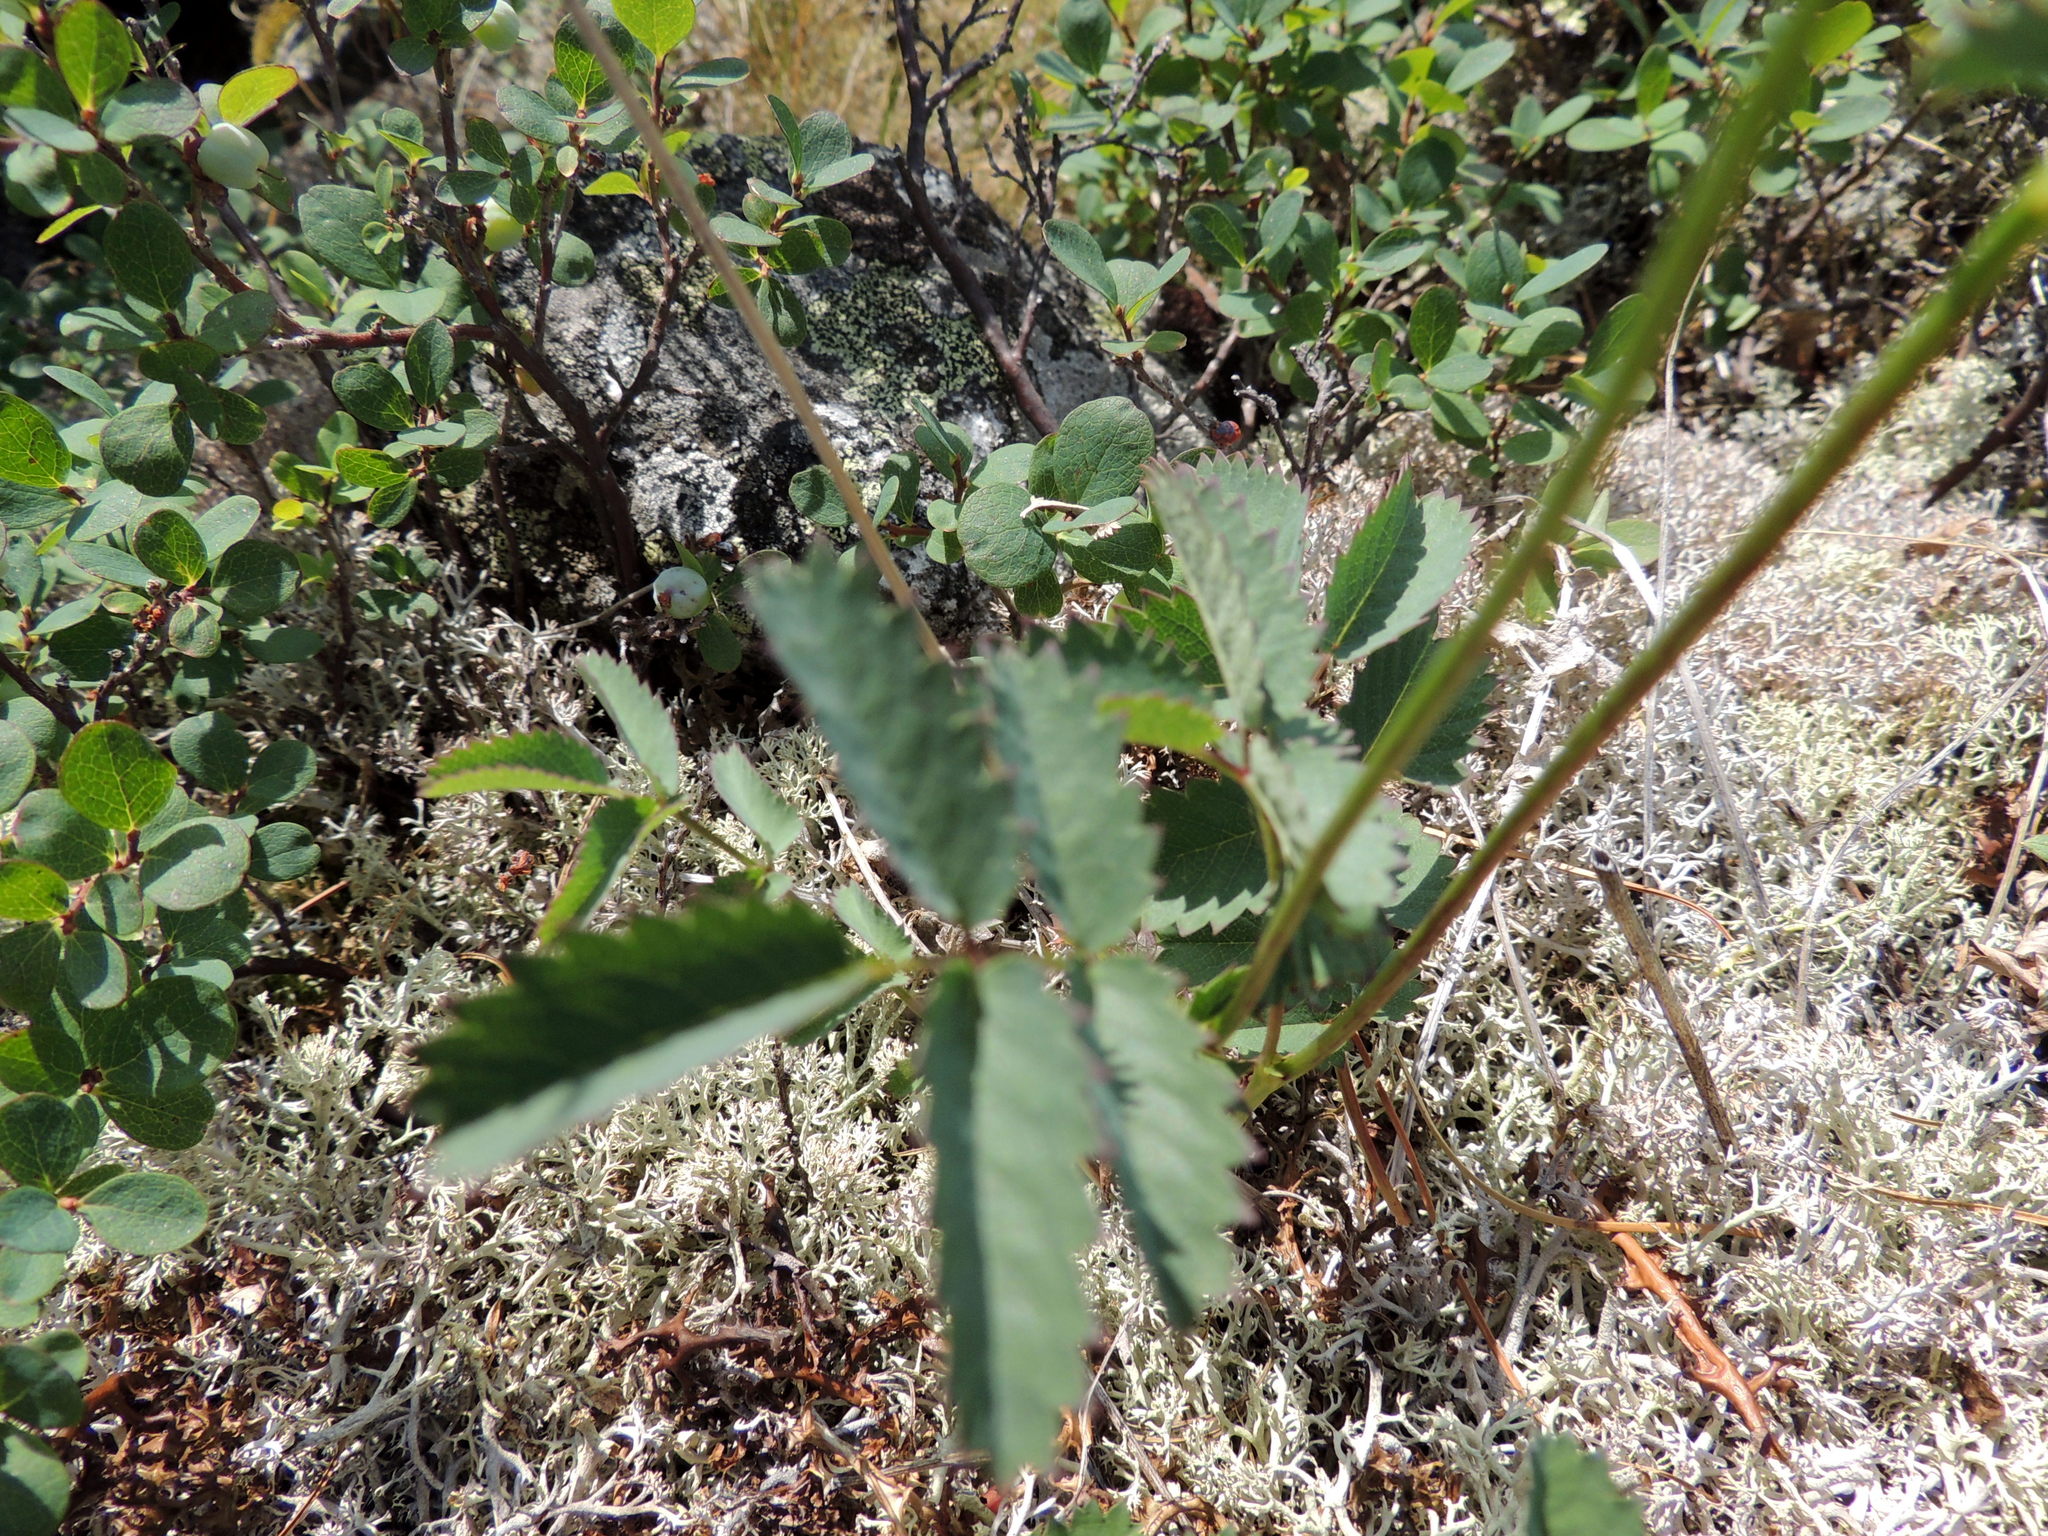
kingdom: Plantae
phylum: Tracheophyta
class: Magnoliopsida
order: Rosales
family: Rosaceae
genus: Sanguisorba
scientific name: Sanguisorba officinalis
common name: Great burnet
